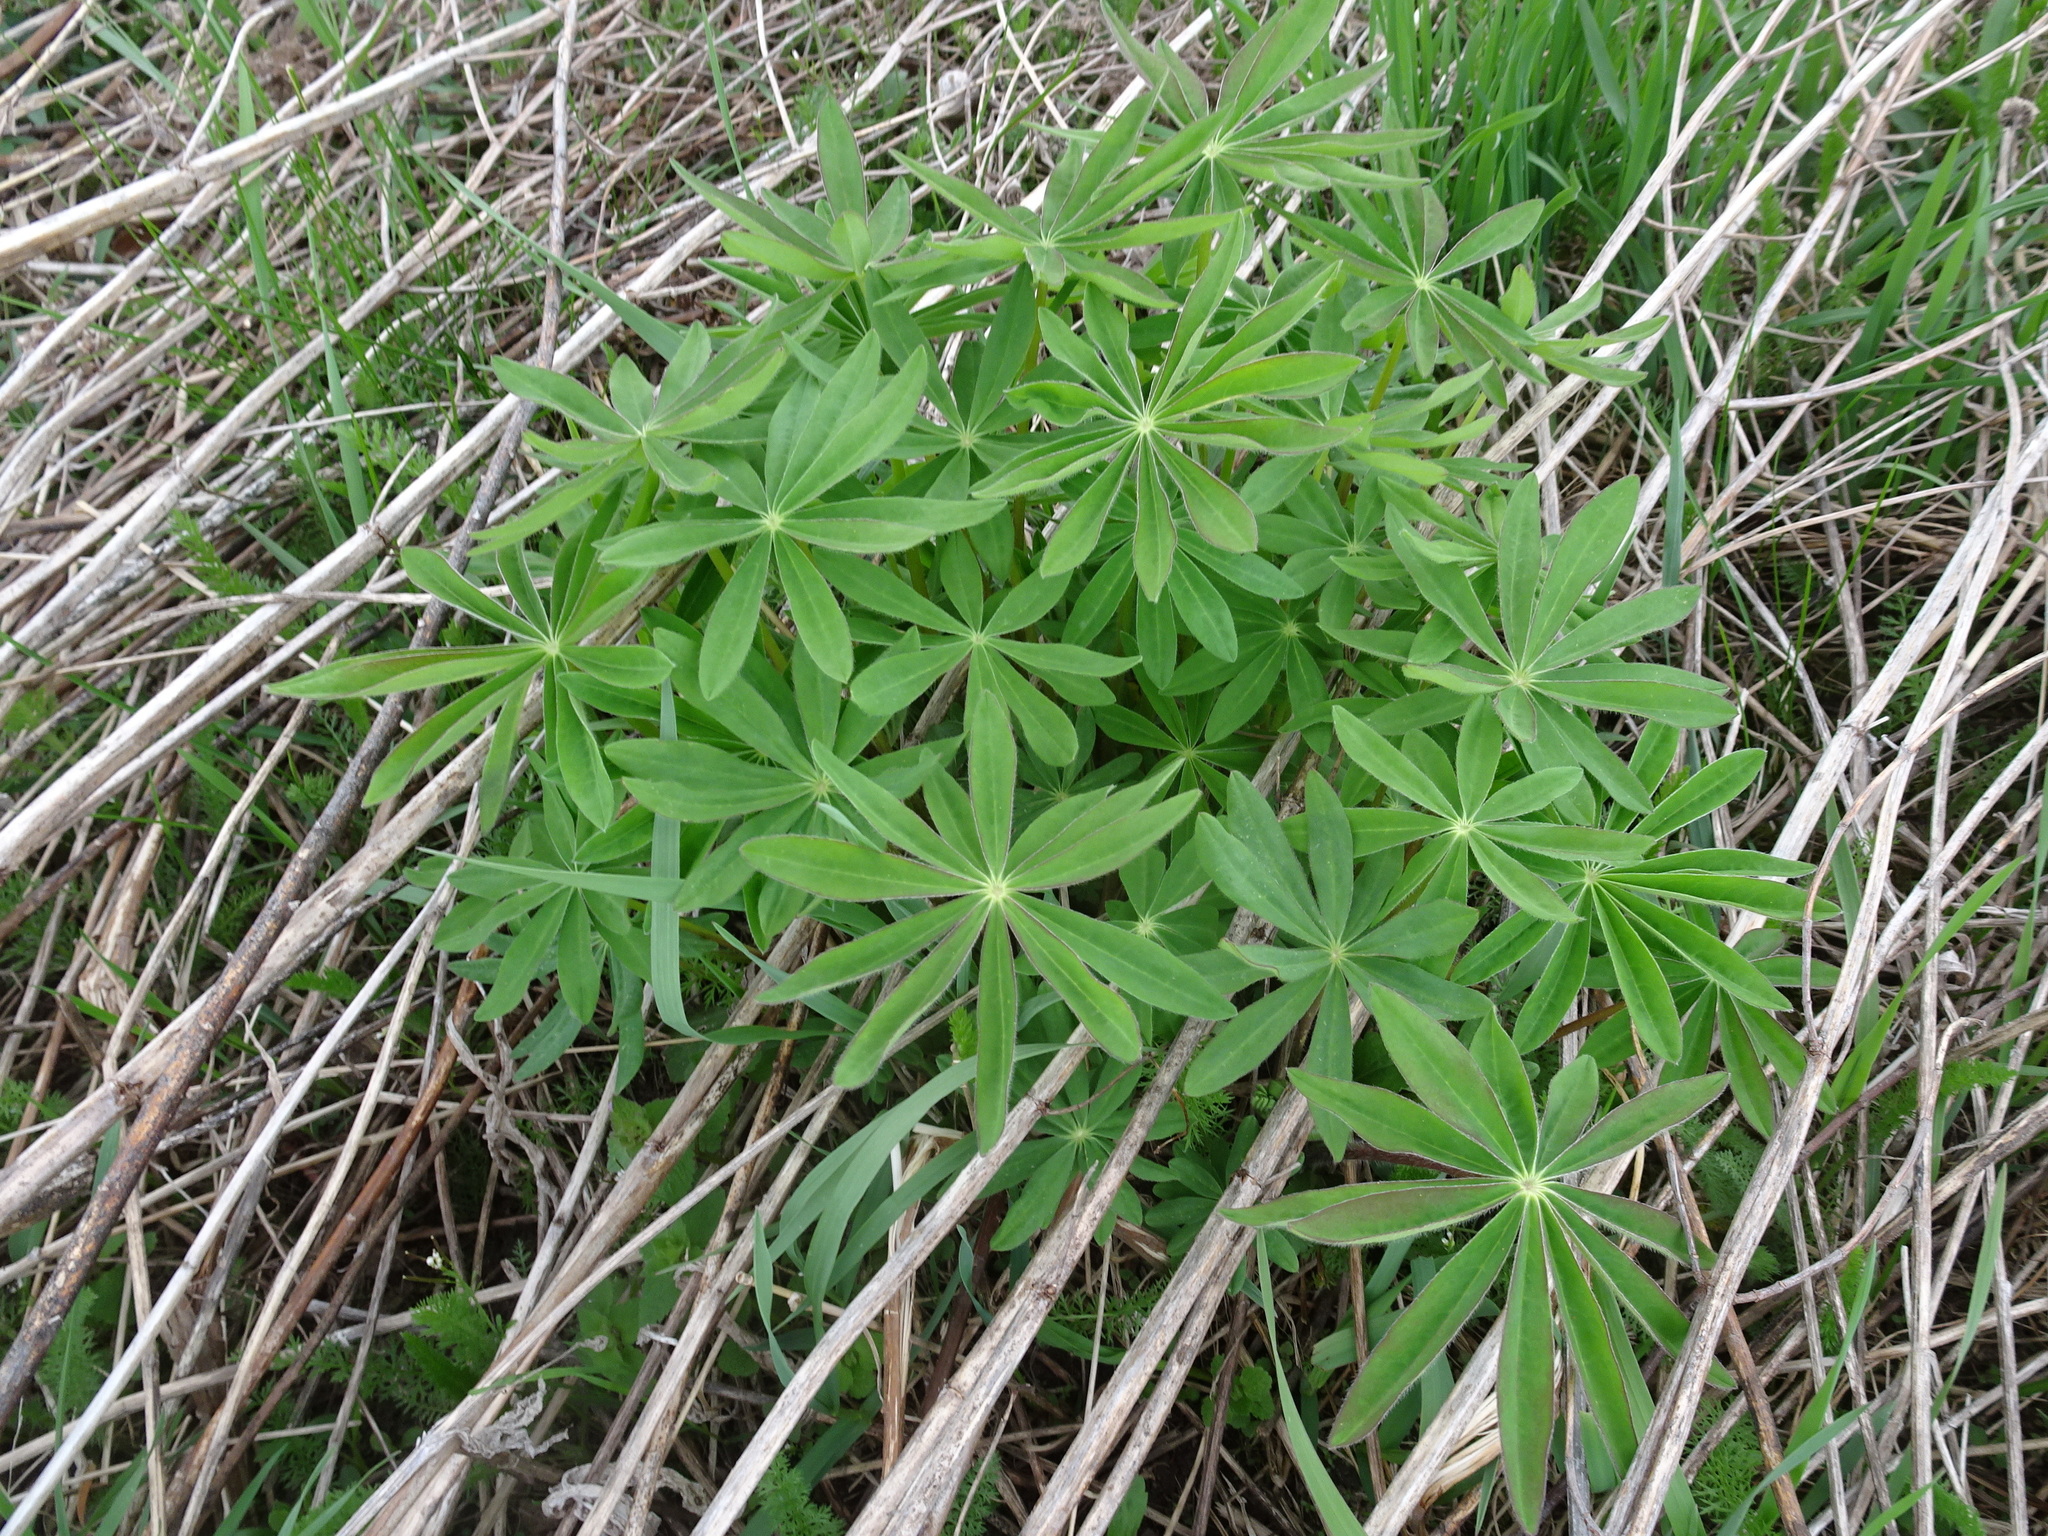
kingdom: Plantae
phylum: Tracheophyta
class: Magnoliopsida
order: Fabales
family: Fabaceae
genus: Lupinus
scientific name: Lupinus perennis
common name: Sundial lupine
